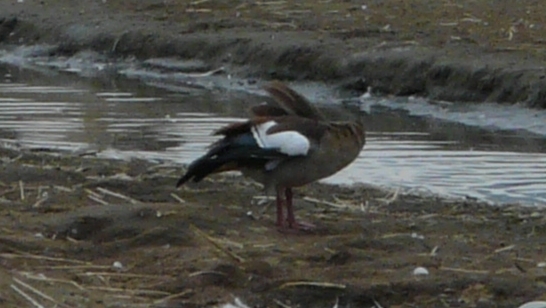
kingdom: Animalia
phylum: Chordata
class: Aves
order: Anseriformes
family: Anatidae
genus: Alopochen
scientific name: Alopochen aegyptiaca
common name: Egyptian goose
